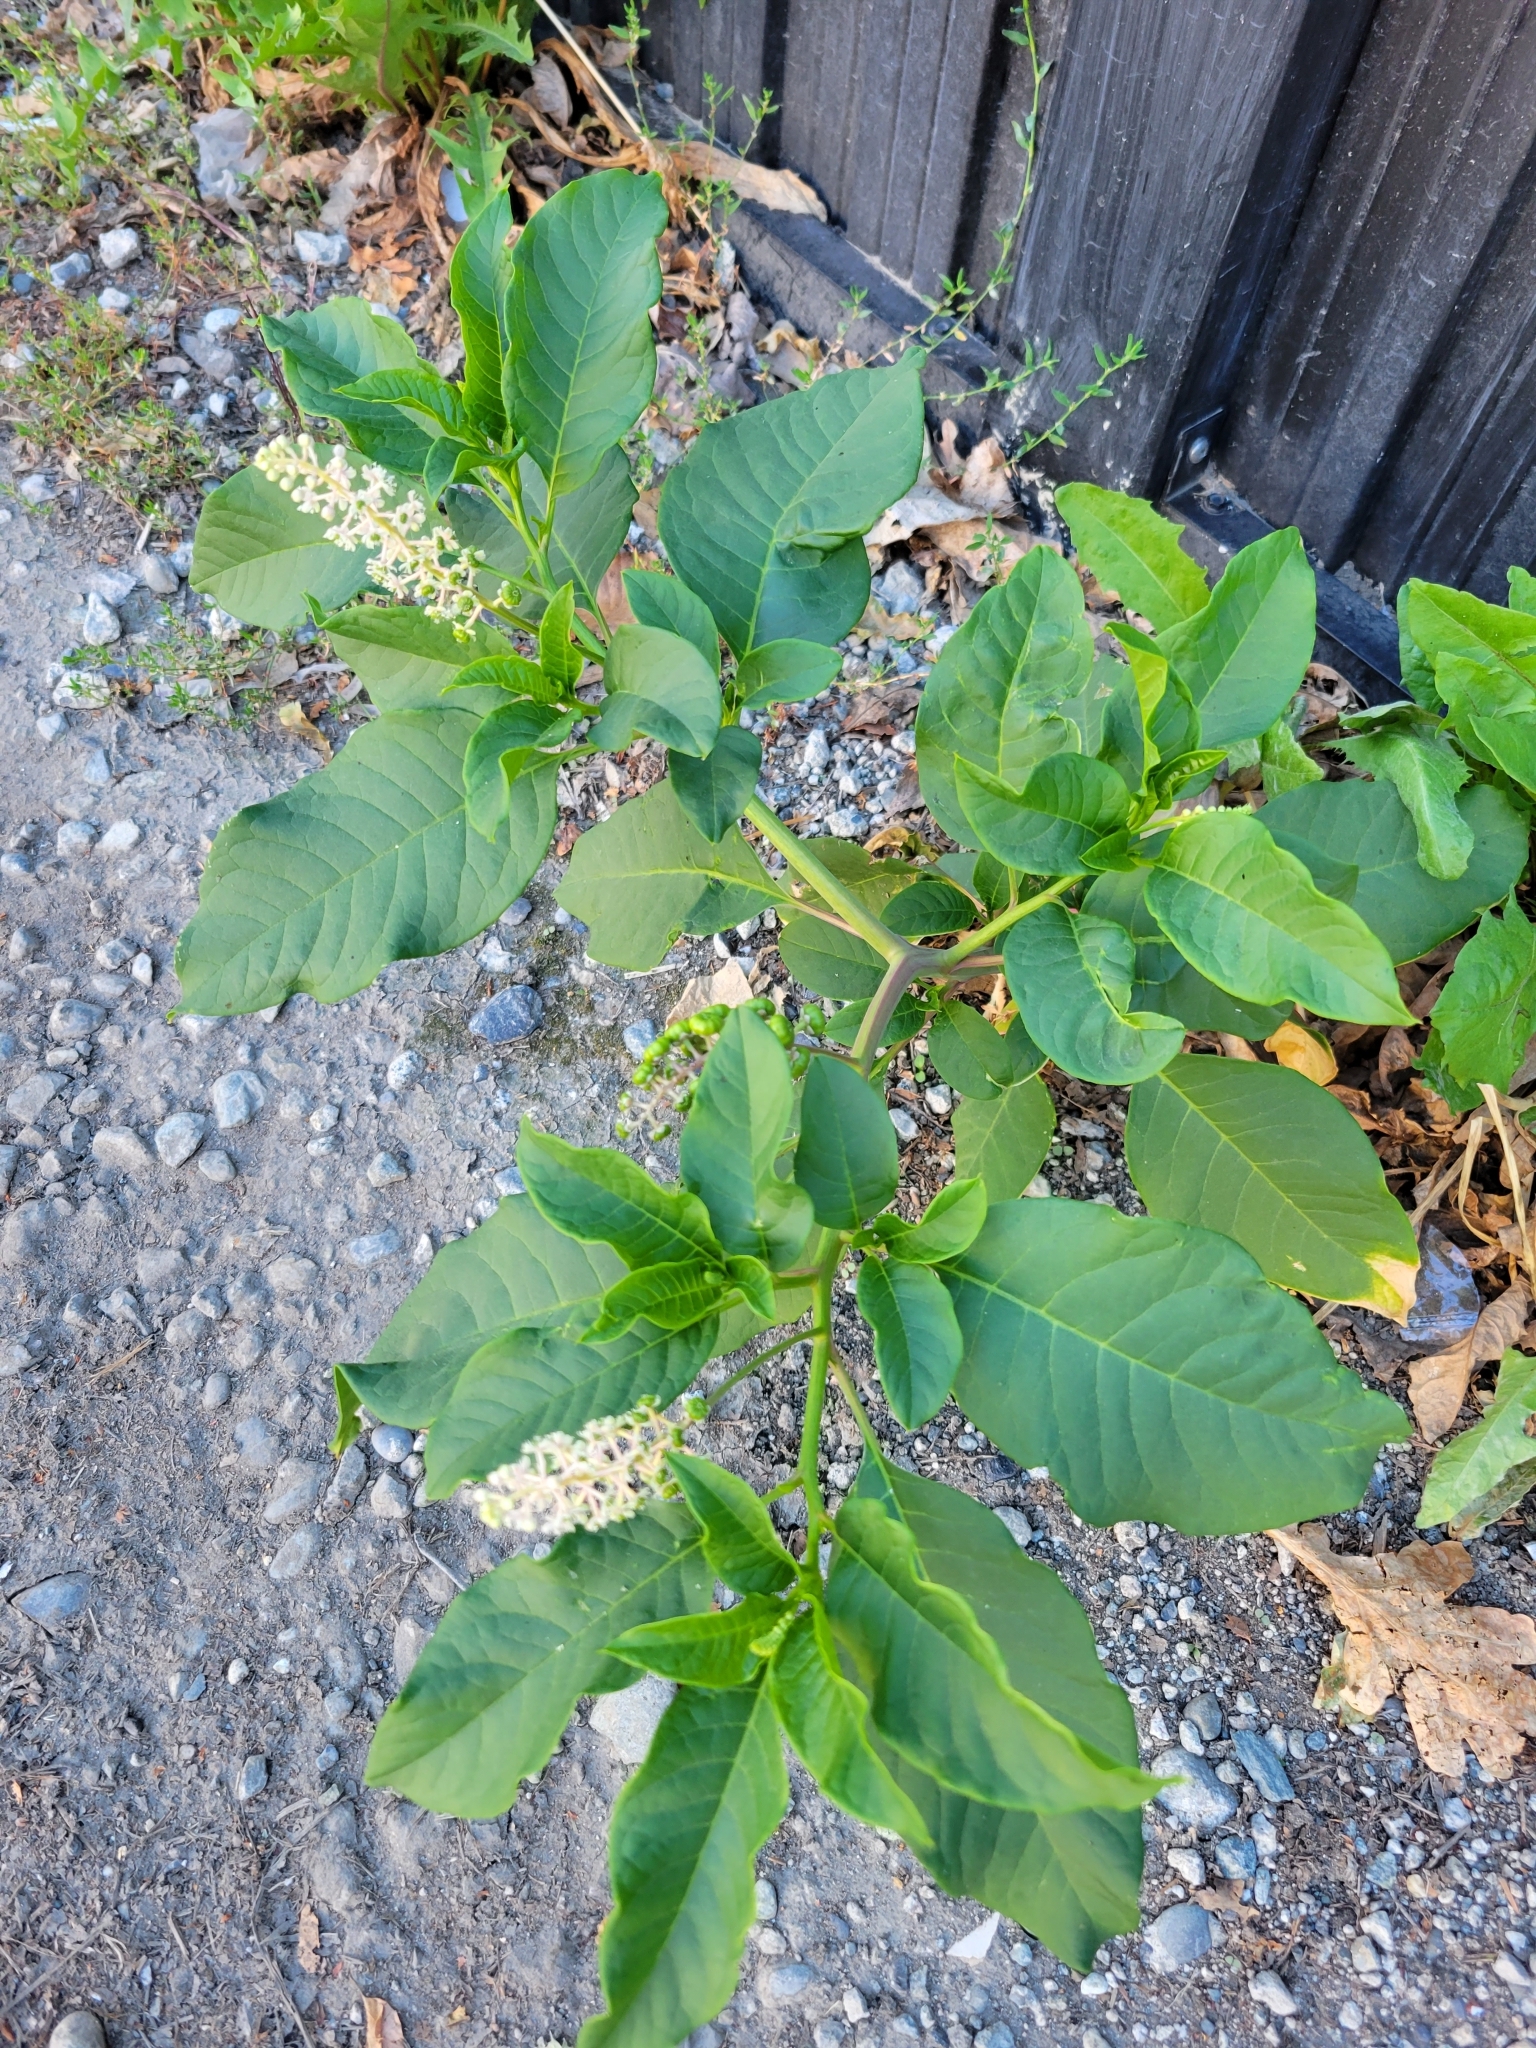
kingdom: Plantae
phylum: Tracheophyta
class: Magnoliopsida
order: Caryophyllales
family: Phytolaccaceae
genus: Phytolacca
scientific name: Phytolacca americana
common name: American pokeweed
